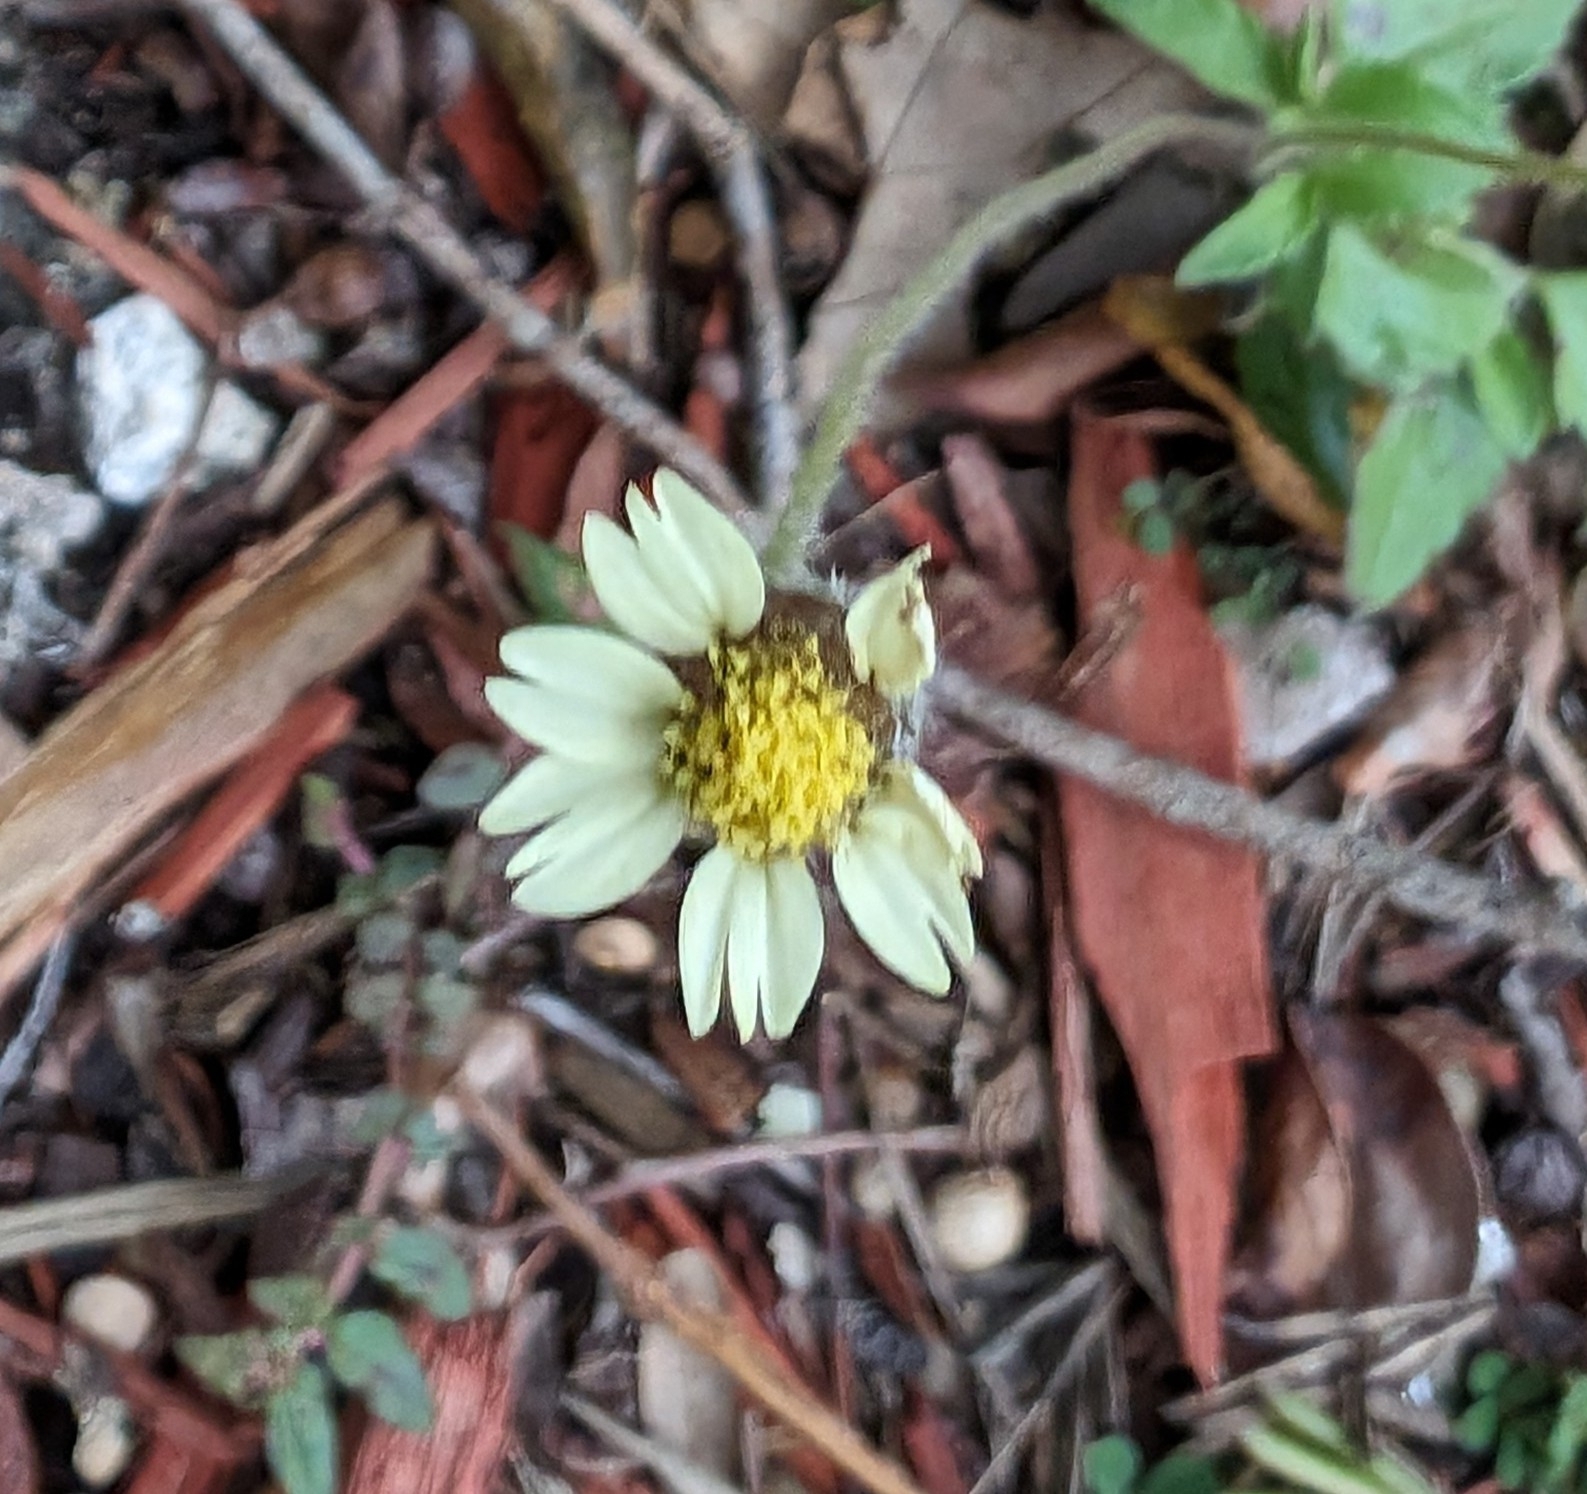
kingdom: Plantae
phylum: Tracheophyta
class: Magnoliopsida
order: Asterales
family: Asteraceae
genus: Tridax
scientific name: Tridax procumbens
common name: Coatbuttons
